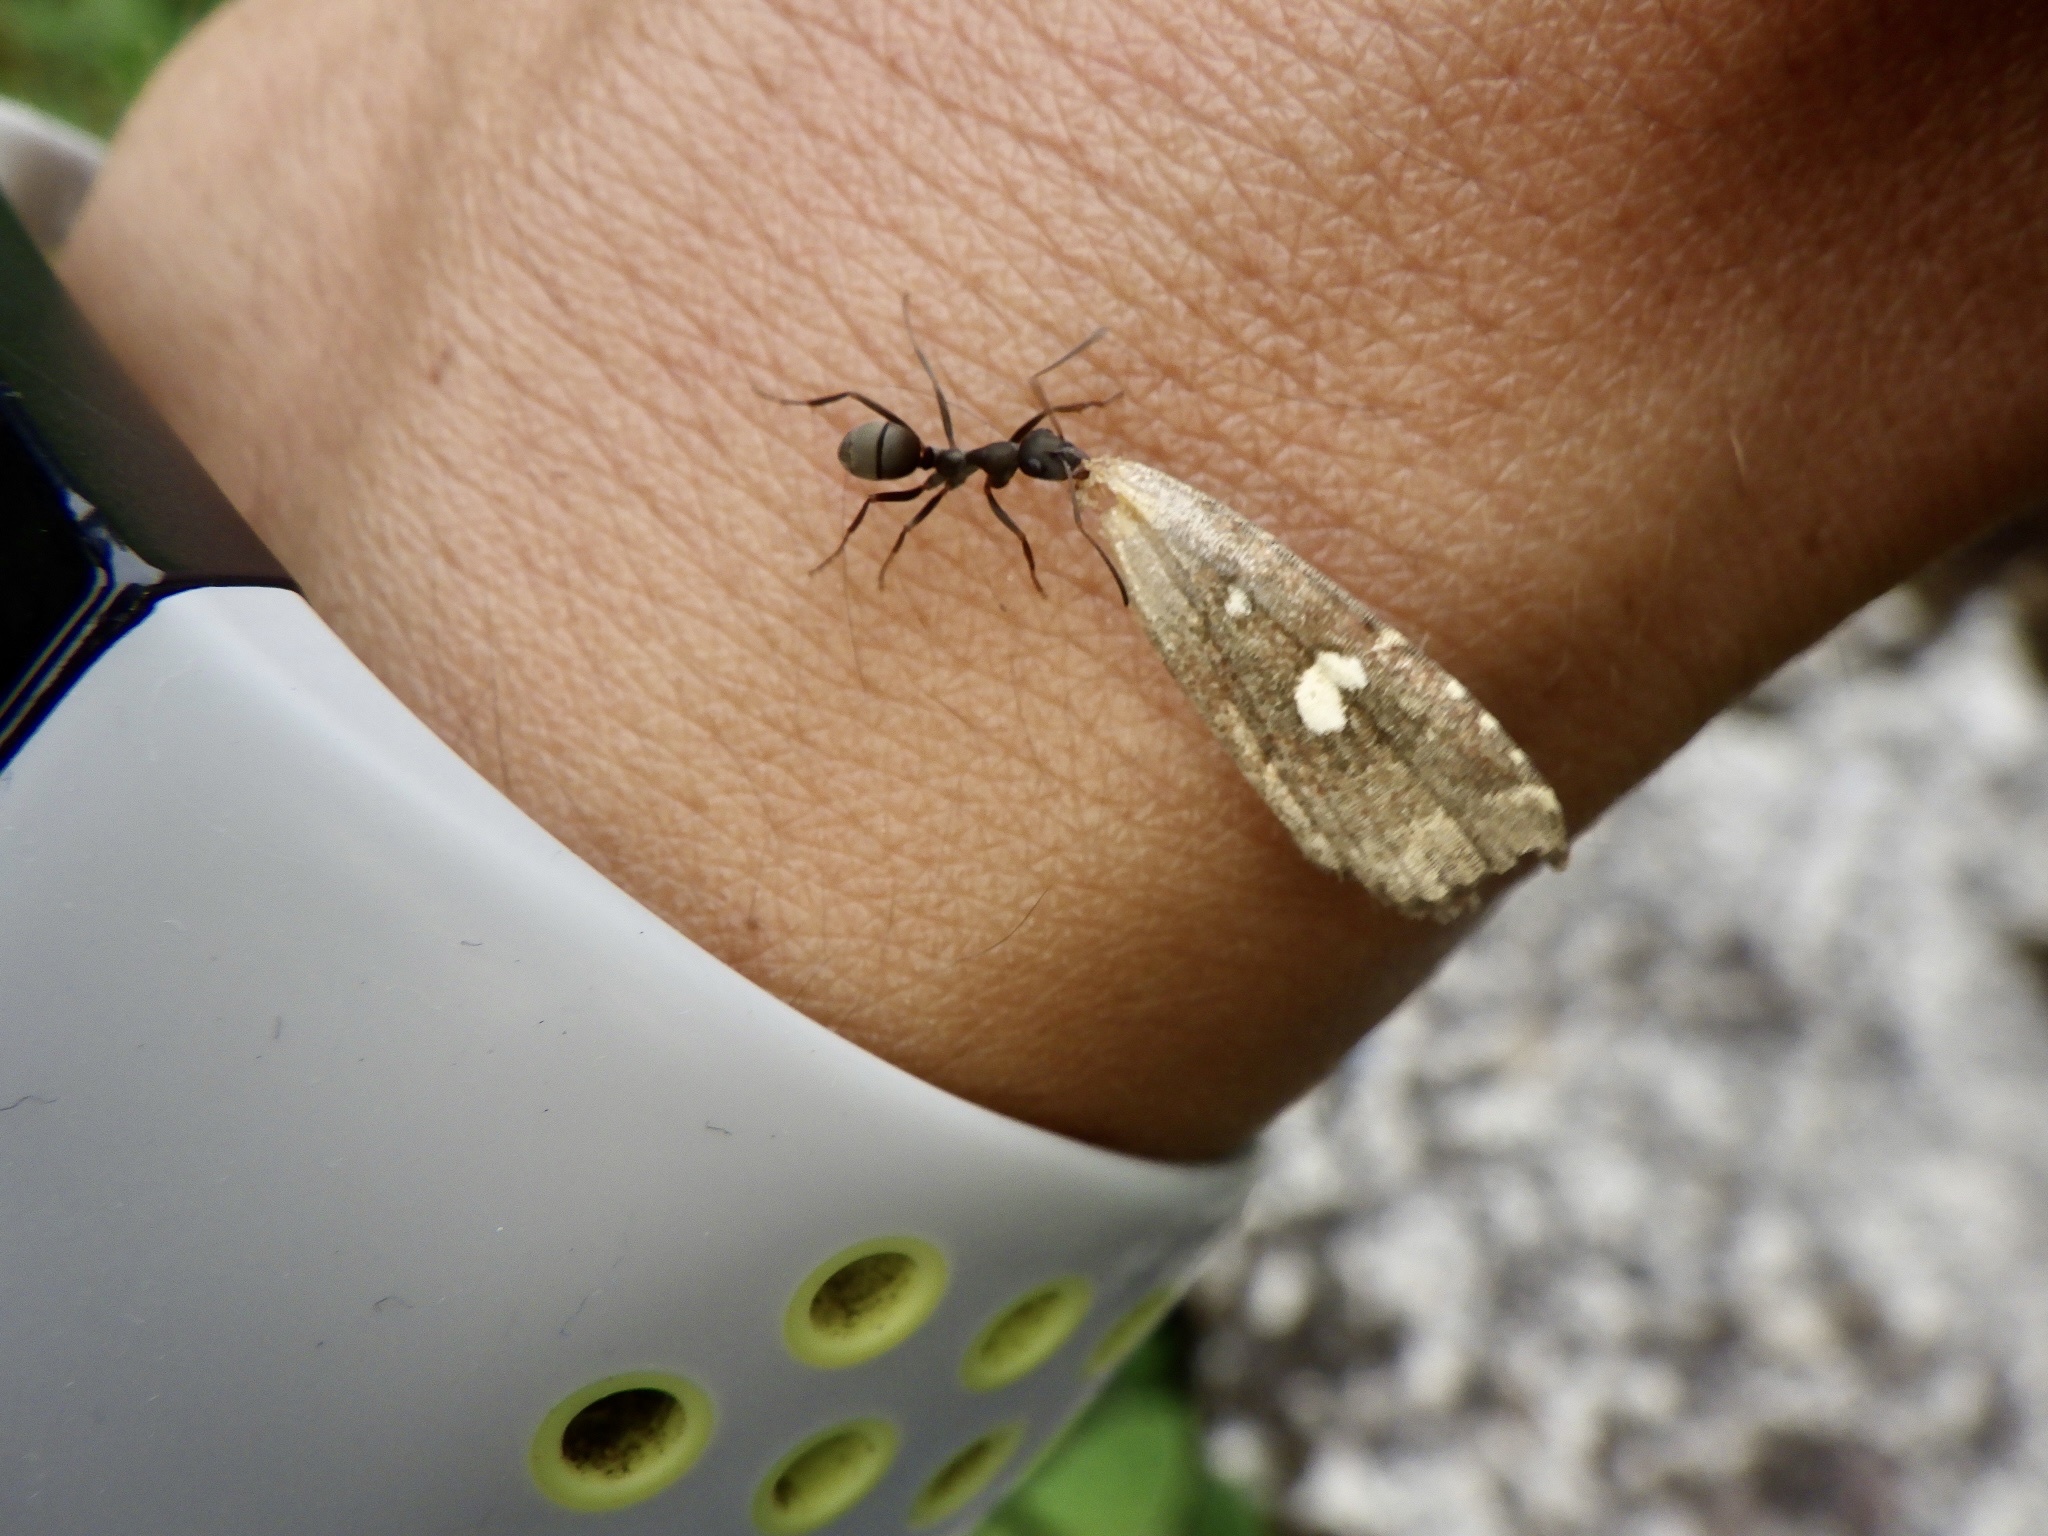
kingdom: Animalia
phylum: Arthropoda
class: Insecta
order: Hymenoptera
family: Formicidae
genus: Formica
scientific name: Formica japonica
